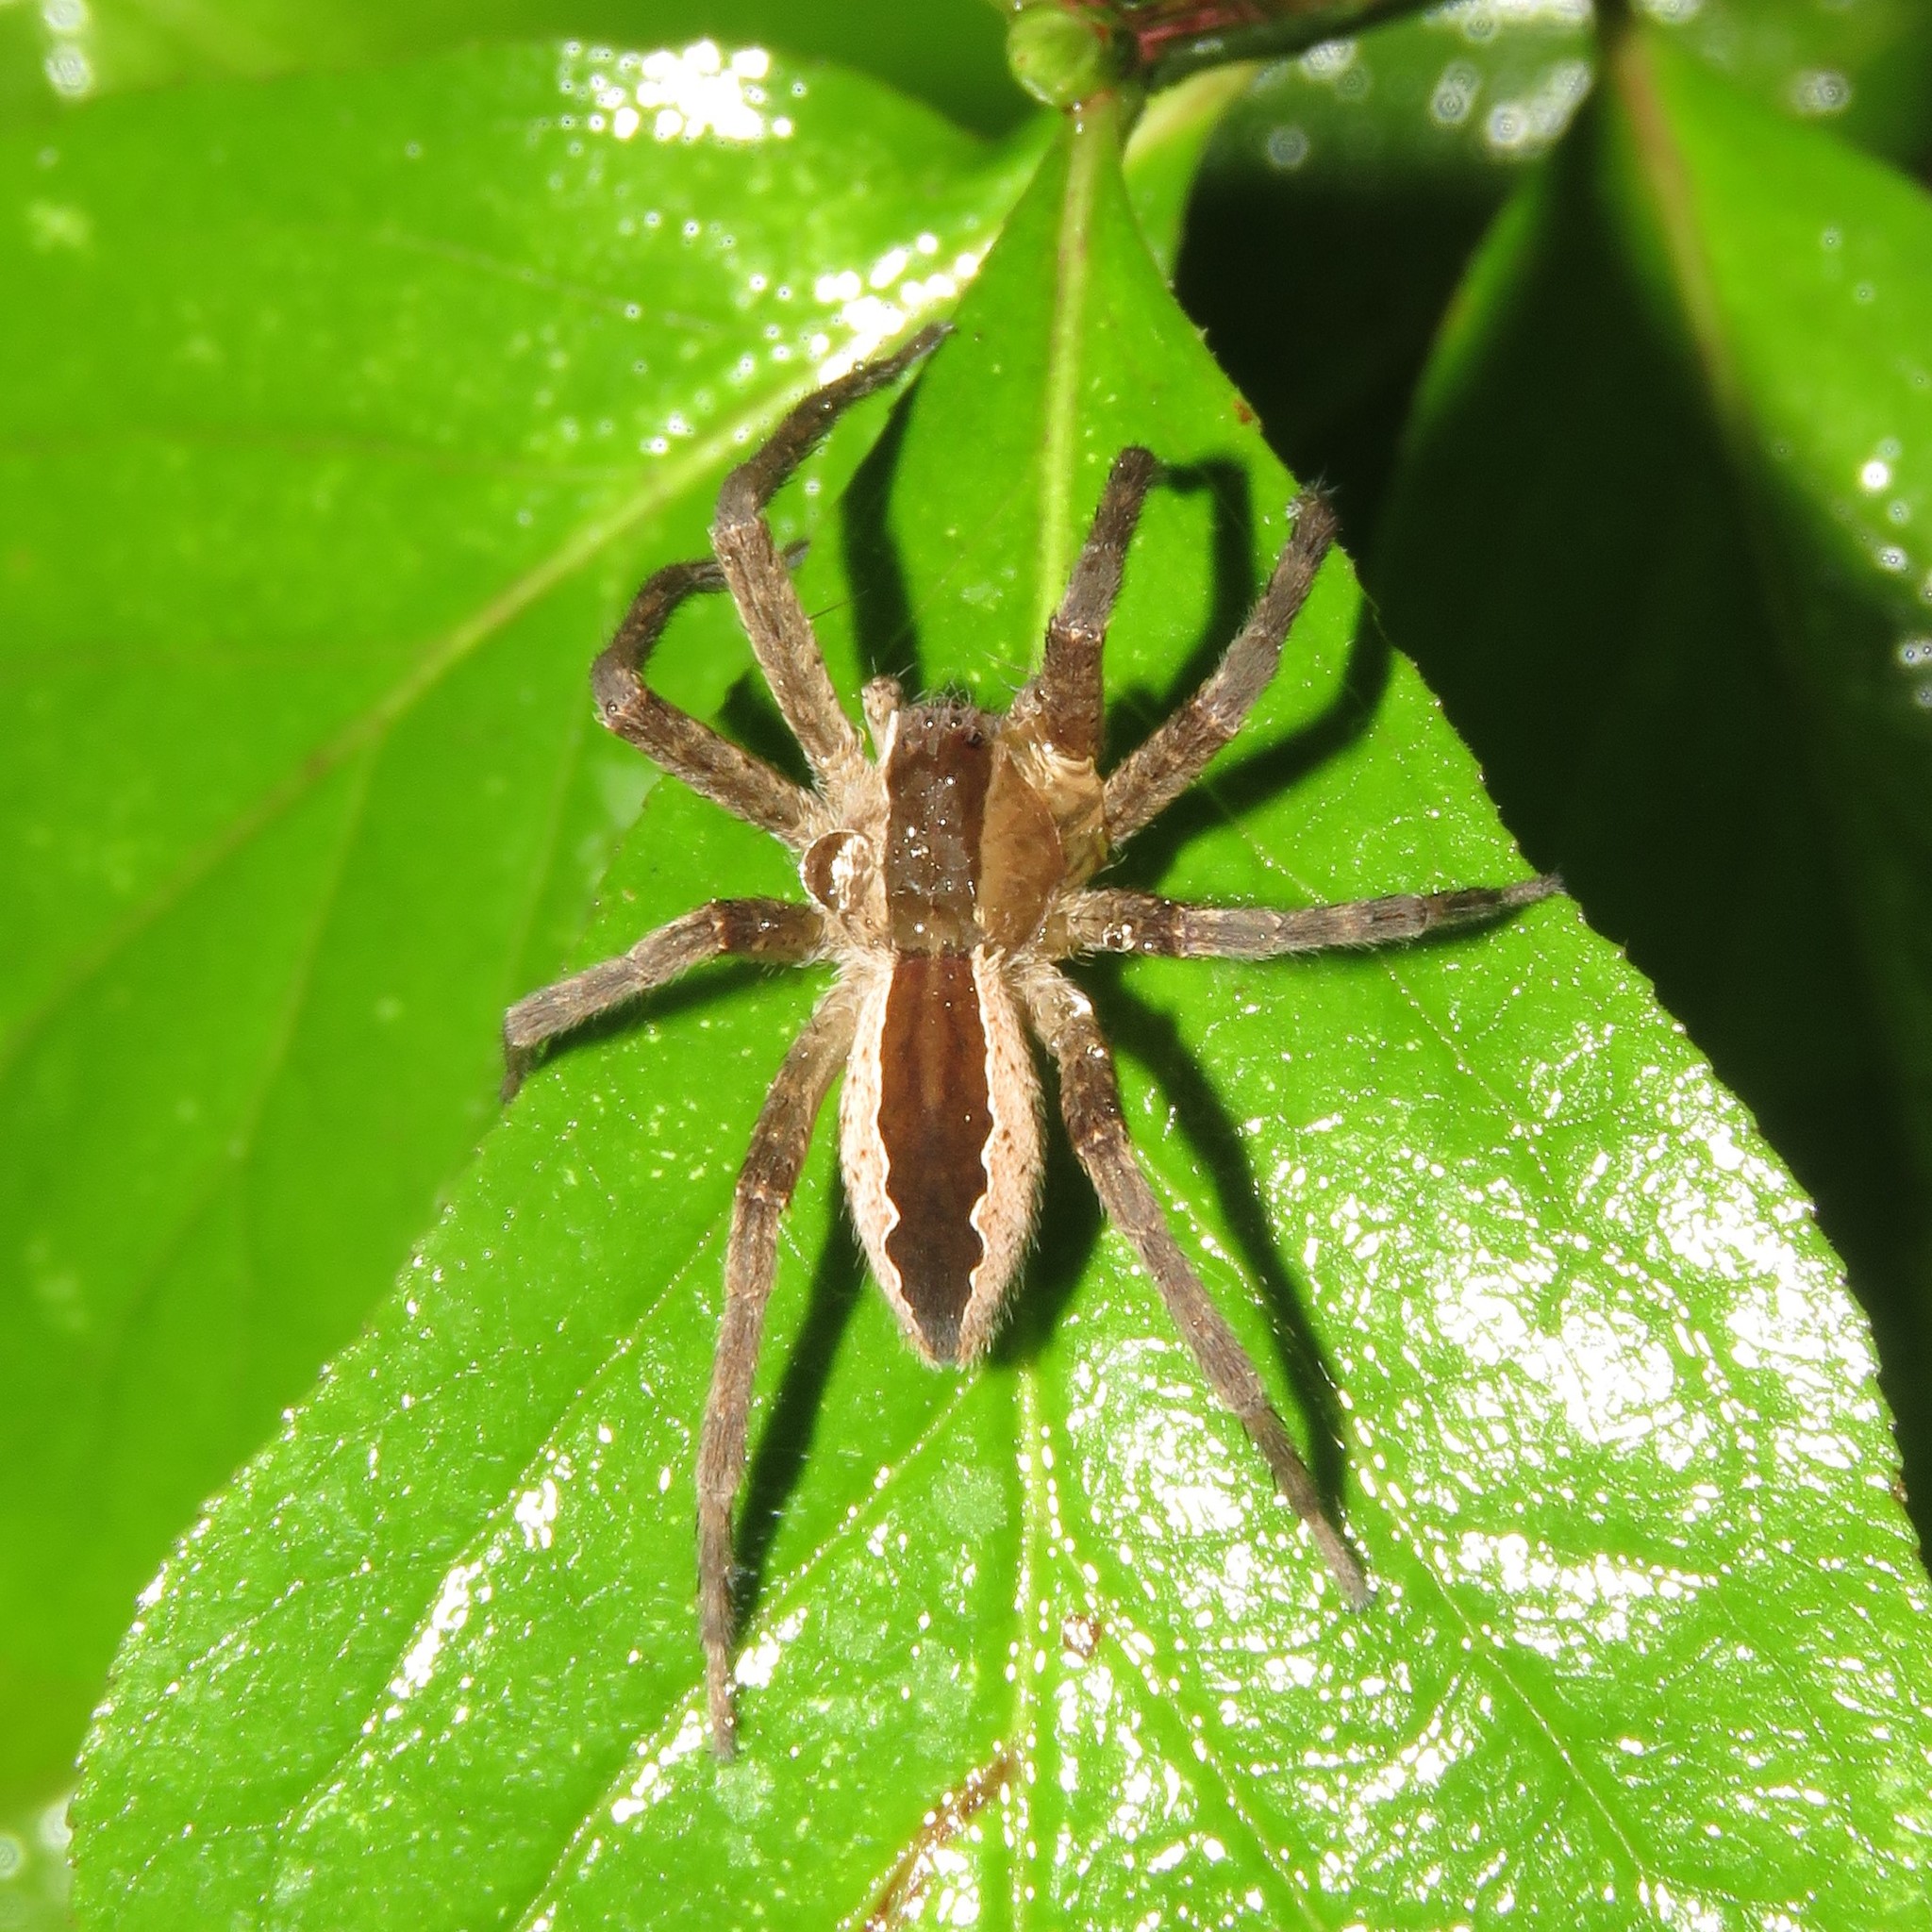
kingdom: Animalia
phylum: Arthropoda
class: Arachnida
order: Araneae
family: Pisauridae
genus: Pisaurina
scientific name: Pisaurina mira
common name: American nursery web spider
